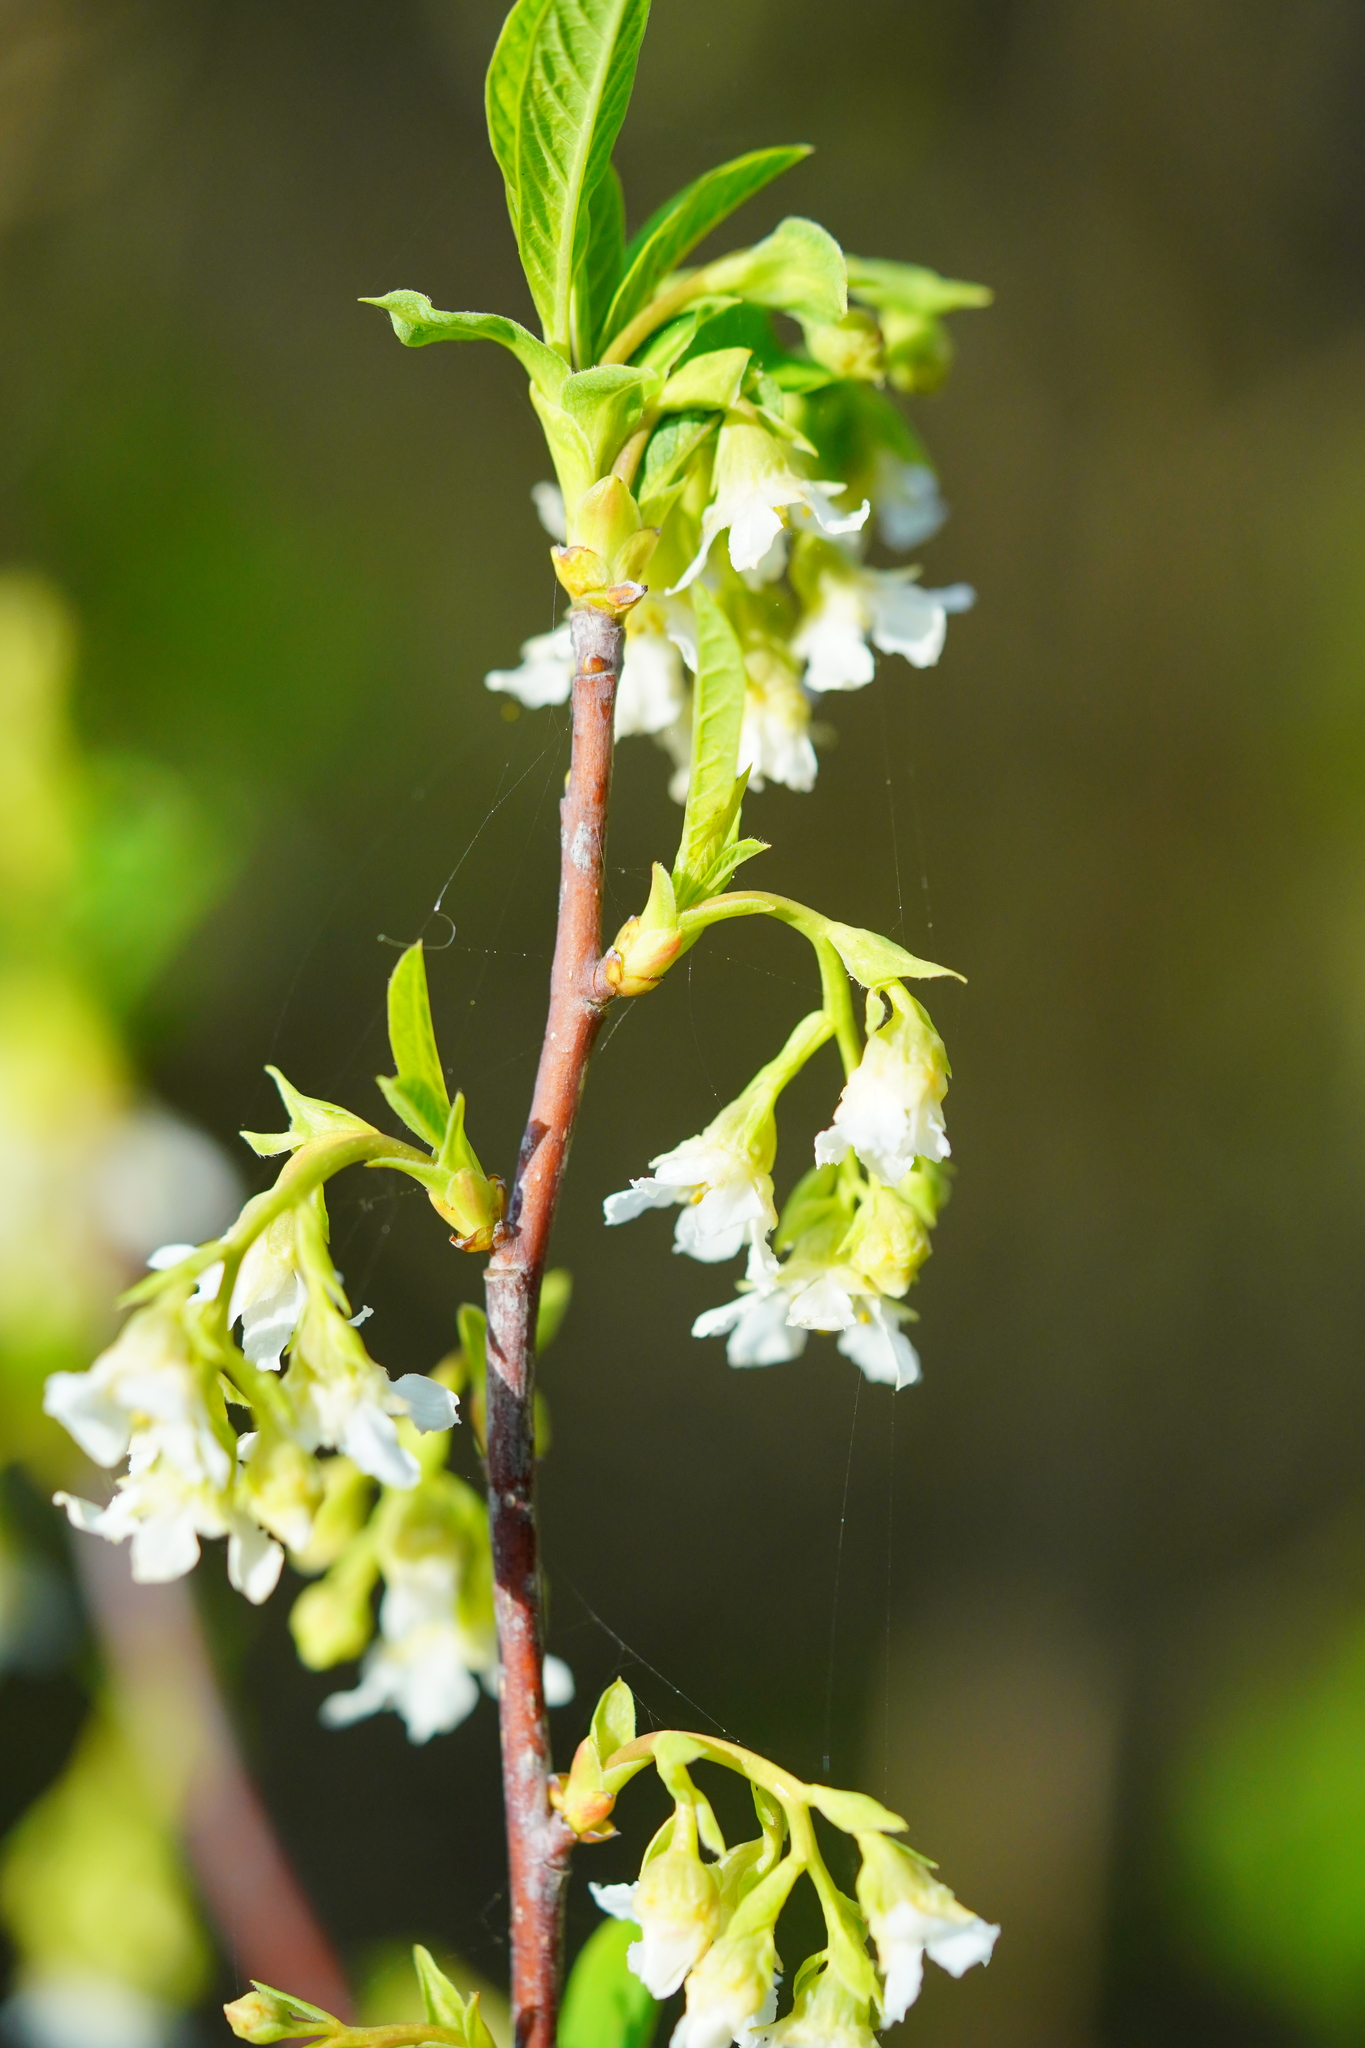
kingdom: Plantae
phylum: Tracheophyta
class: Magnoliopsida
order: Rosales
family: Rosaceae
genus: Oemleria
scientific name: Oemleria cerasiformis
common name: Osoberry
